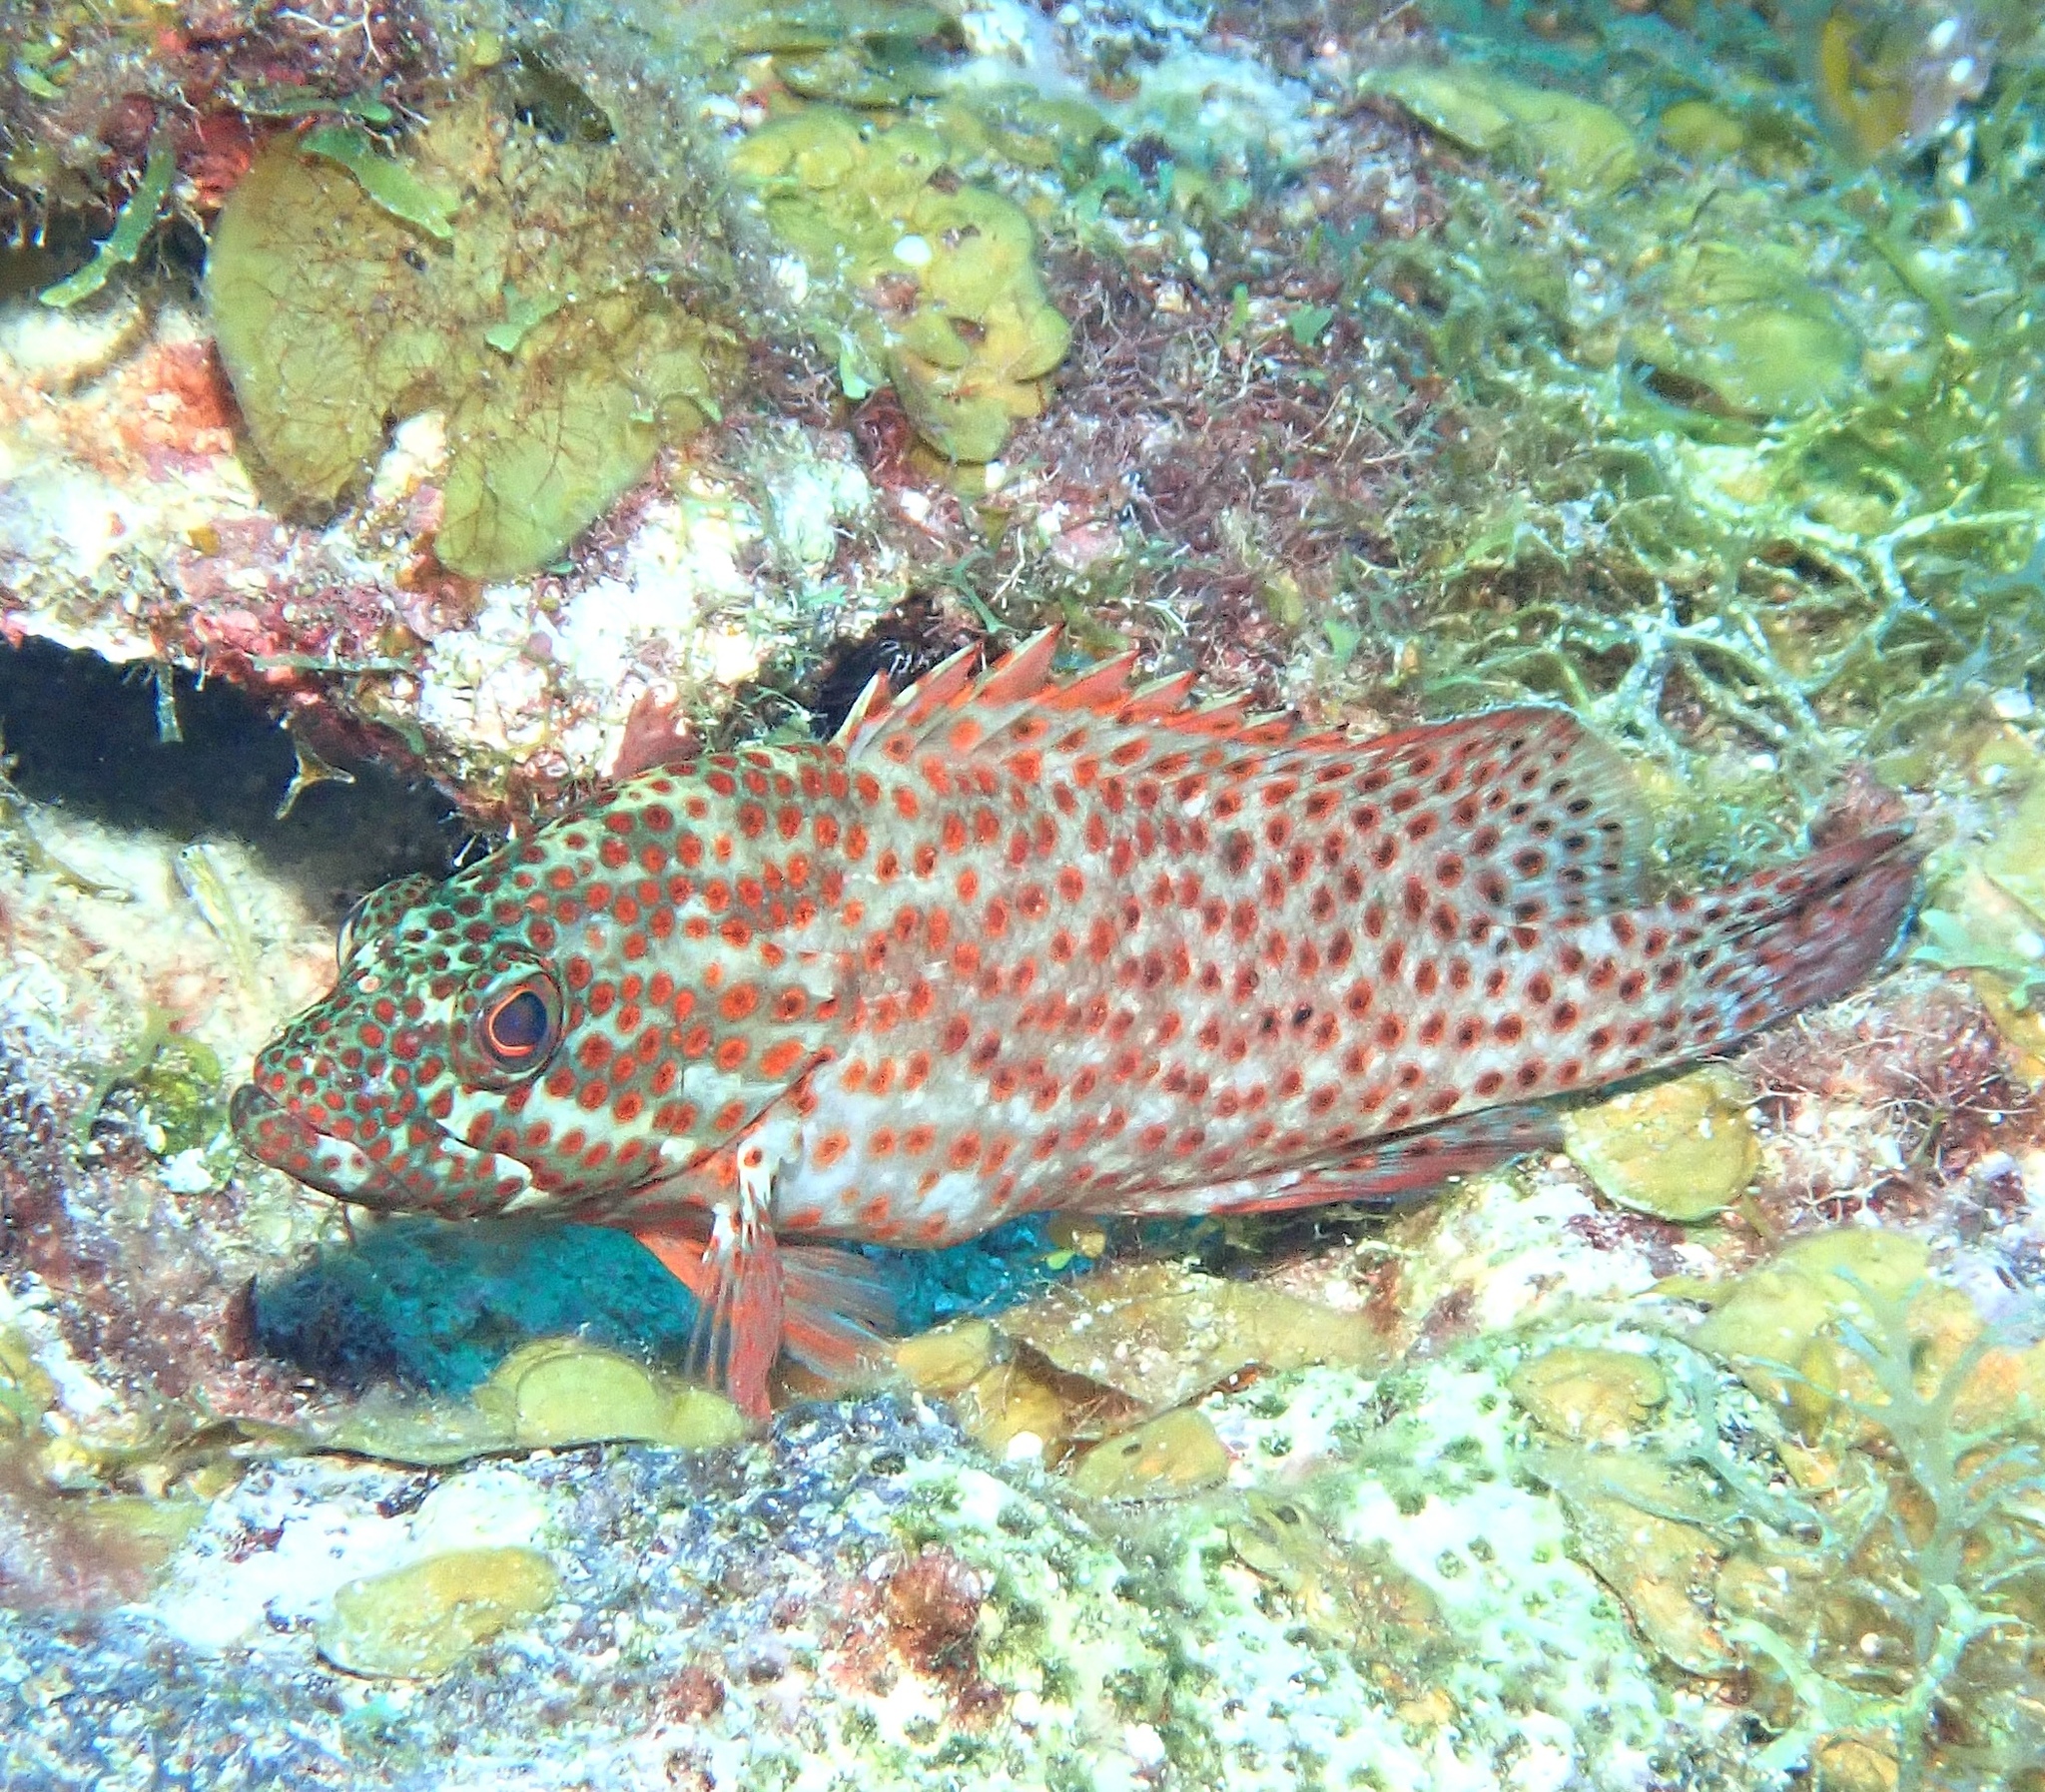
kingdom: Animalia
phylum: Chordata
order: Perciformes
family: Serranidae
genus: Cephalopholis
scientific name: Cephalopholis cruentata
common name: Graysby
